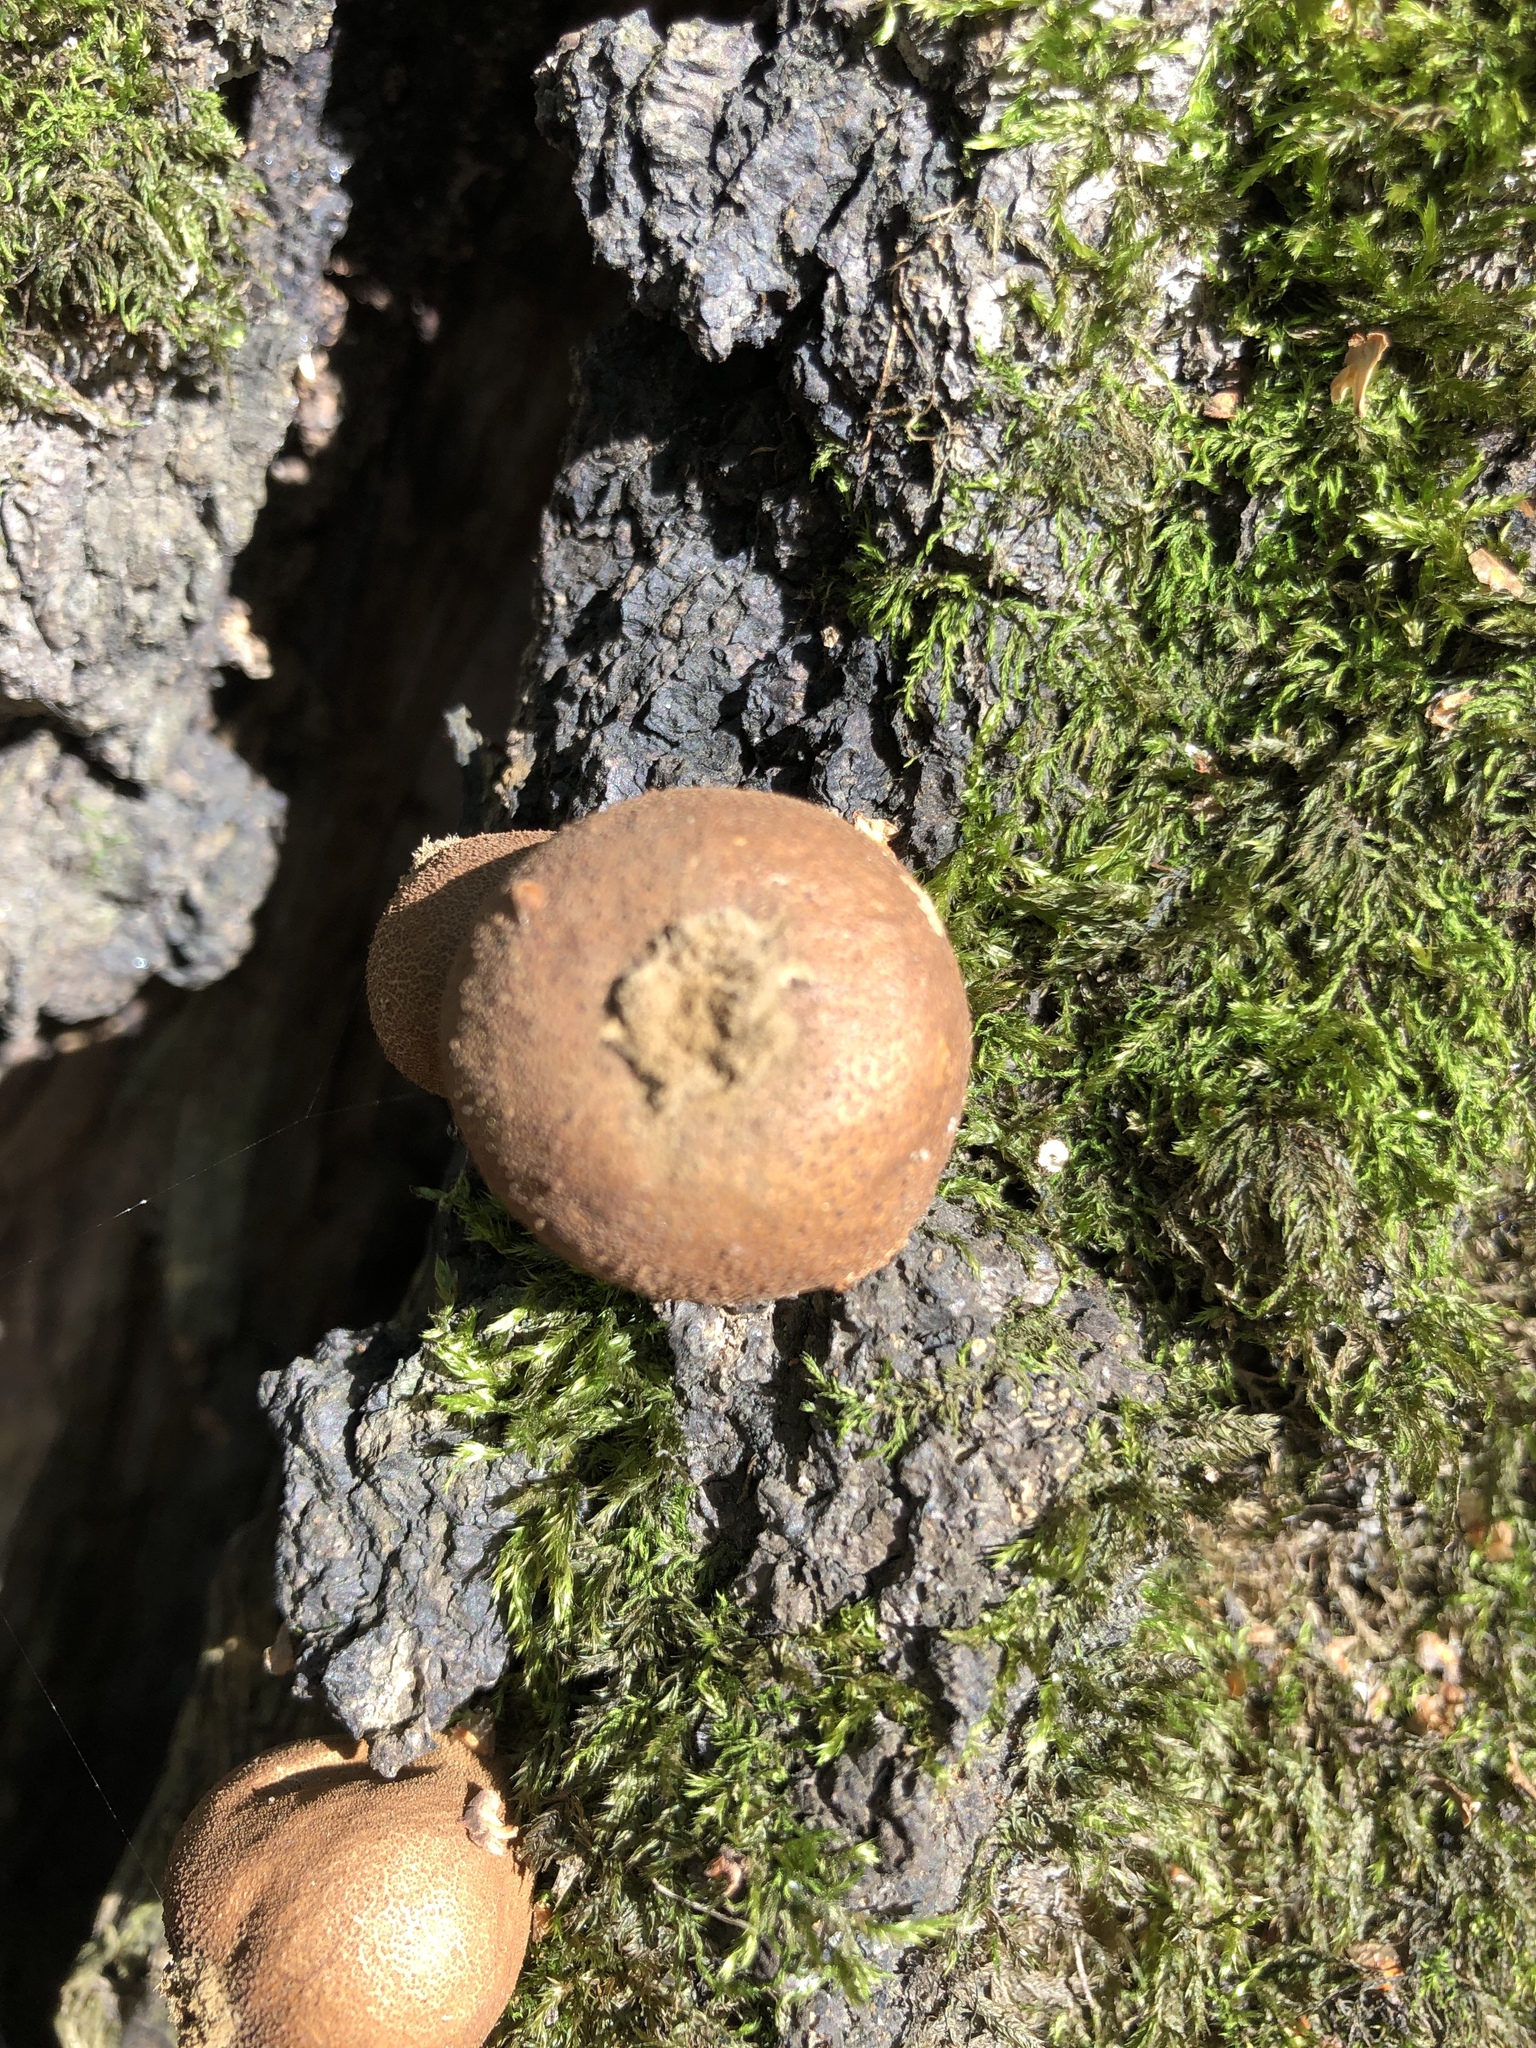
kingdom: Fungi
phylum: Basidiomycota
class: Agaricomycetes
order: Agaricales
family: Lycoperdaceae
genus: Apioperdon
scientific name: Apioperdon pyriforme
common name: Pear-shaped puffball
